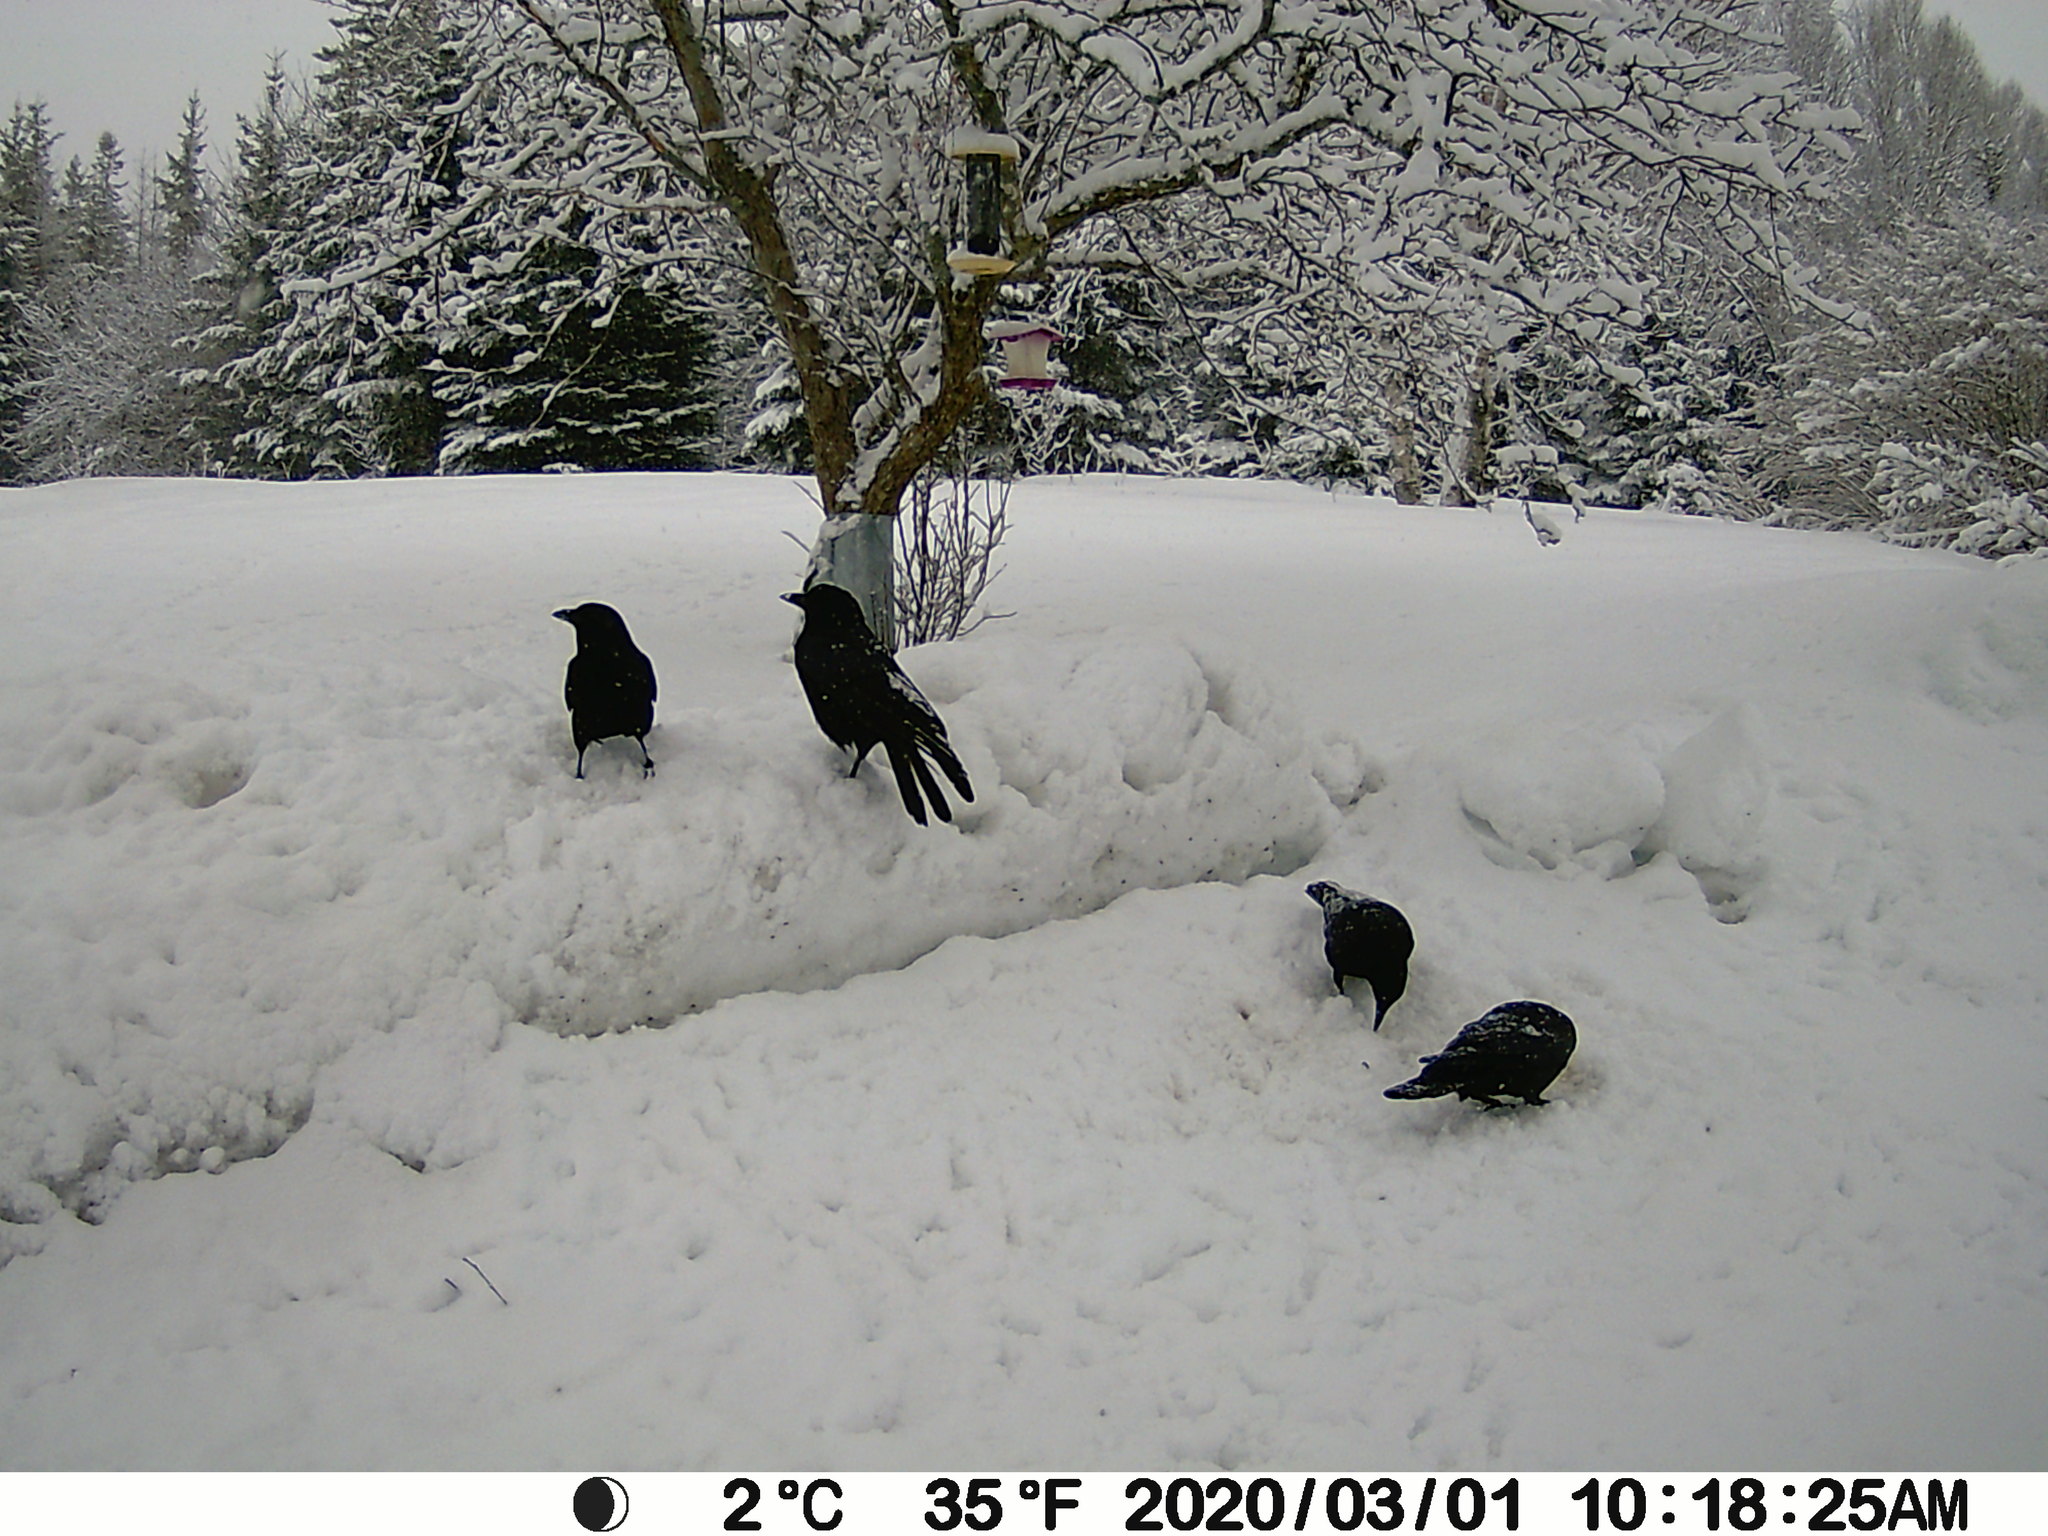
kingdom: Animalia
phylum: Chordata
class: Aves
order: Passeriformes
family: Corvidae
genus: Corvus
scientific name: Corvus brachyrhynchos
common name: American crow
